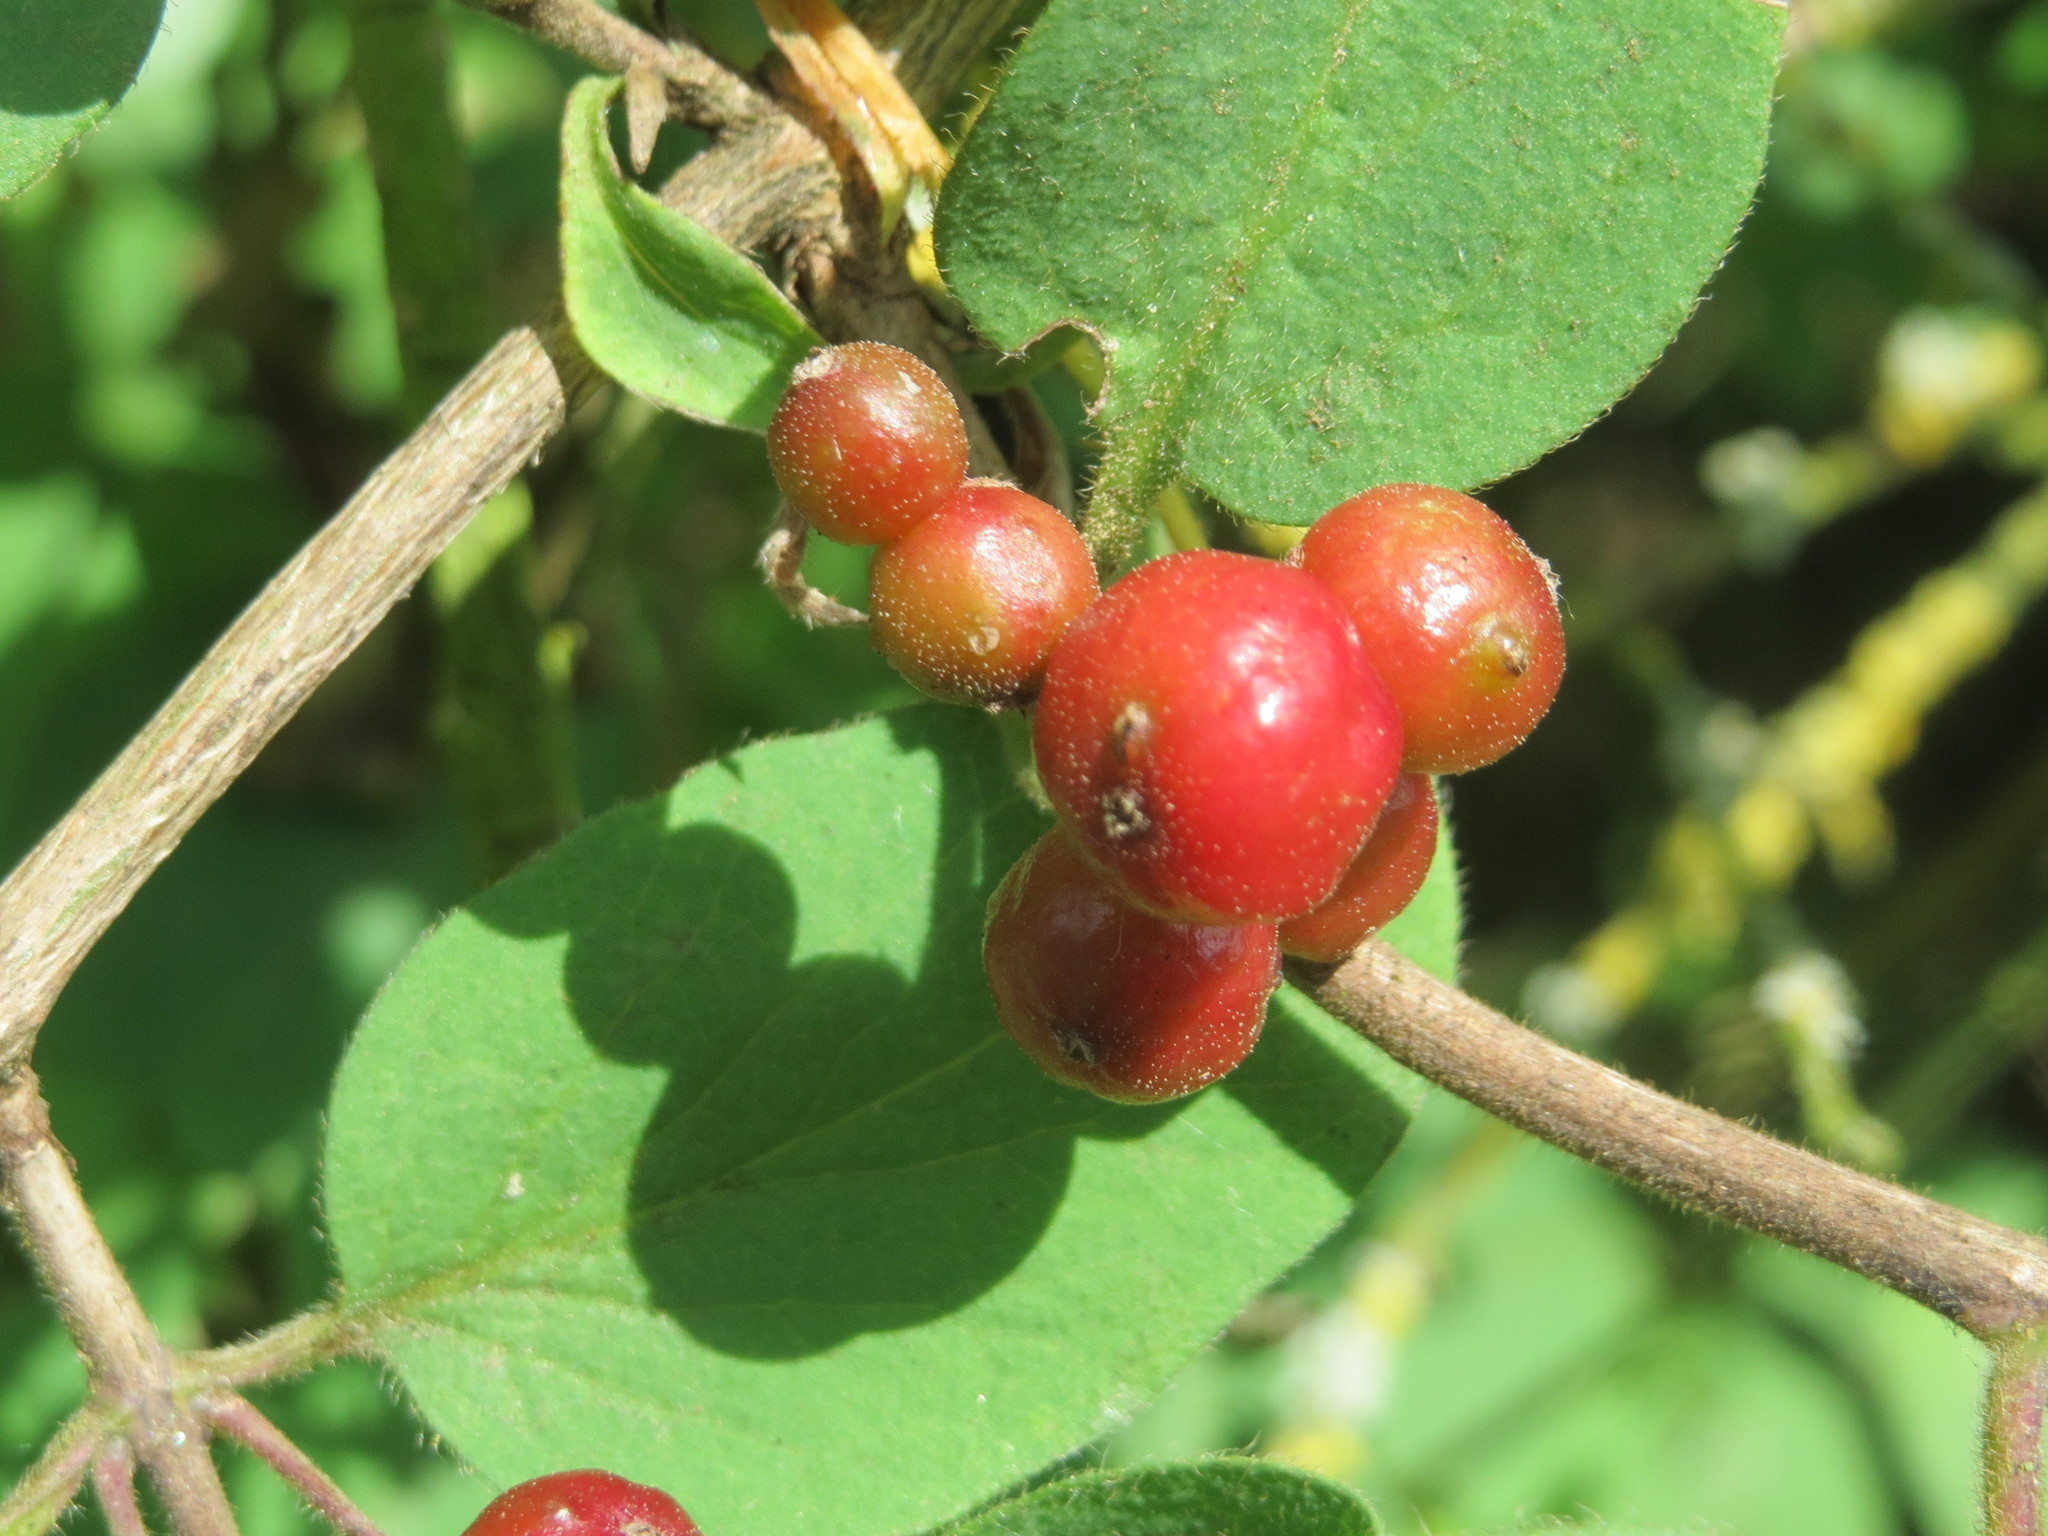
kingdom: Plantae
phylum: Tracheophyta
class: Magnoliopsida
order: Dipsacales
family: Caprifoliaceae
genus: Lonicera
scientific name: Lonicera xylosteum
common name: Fly honeysuckle
